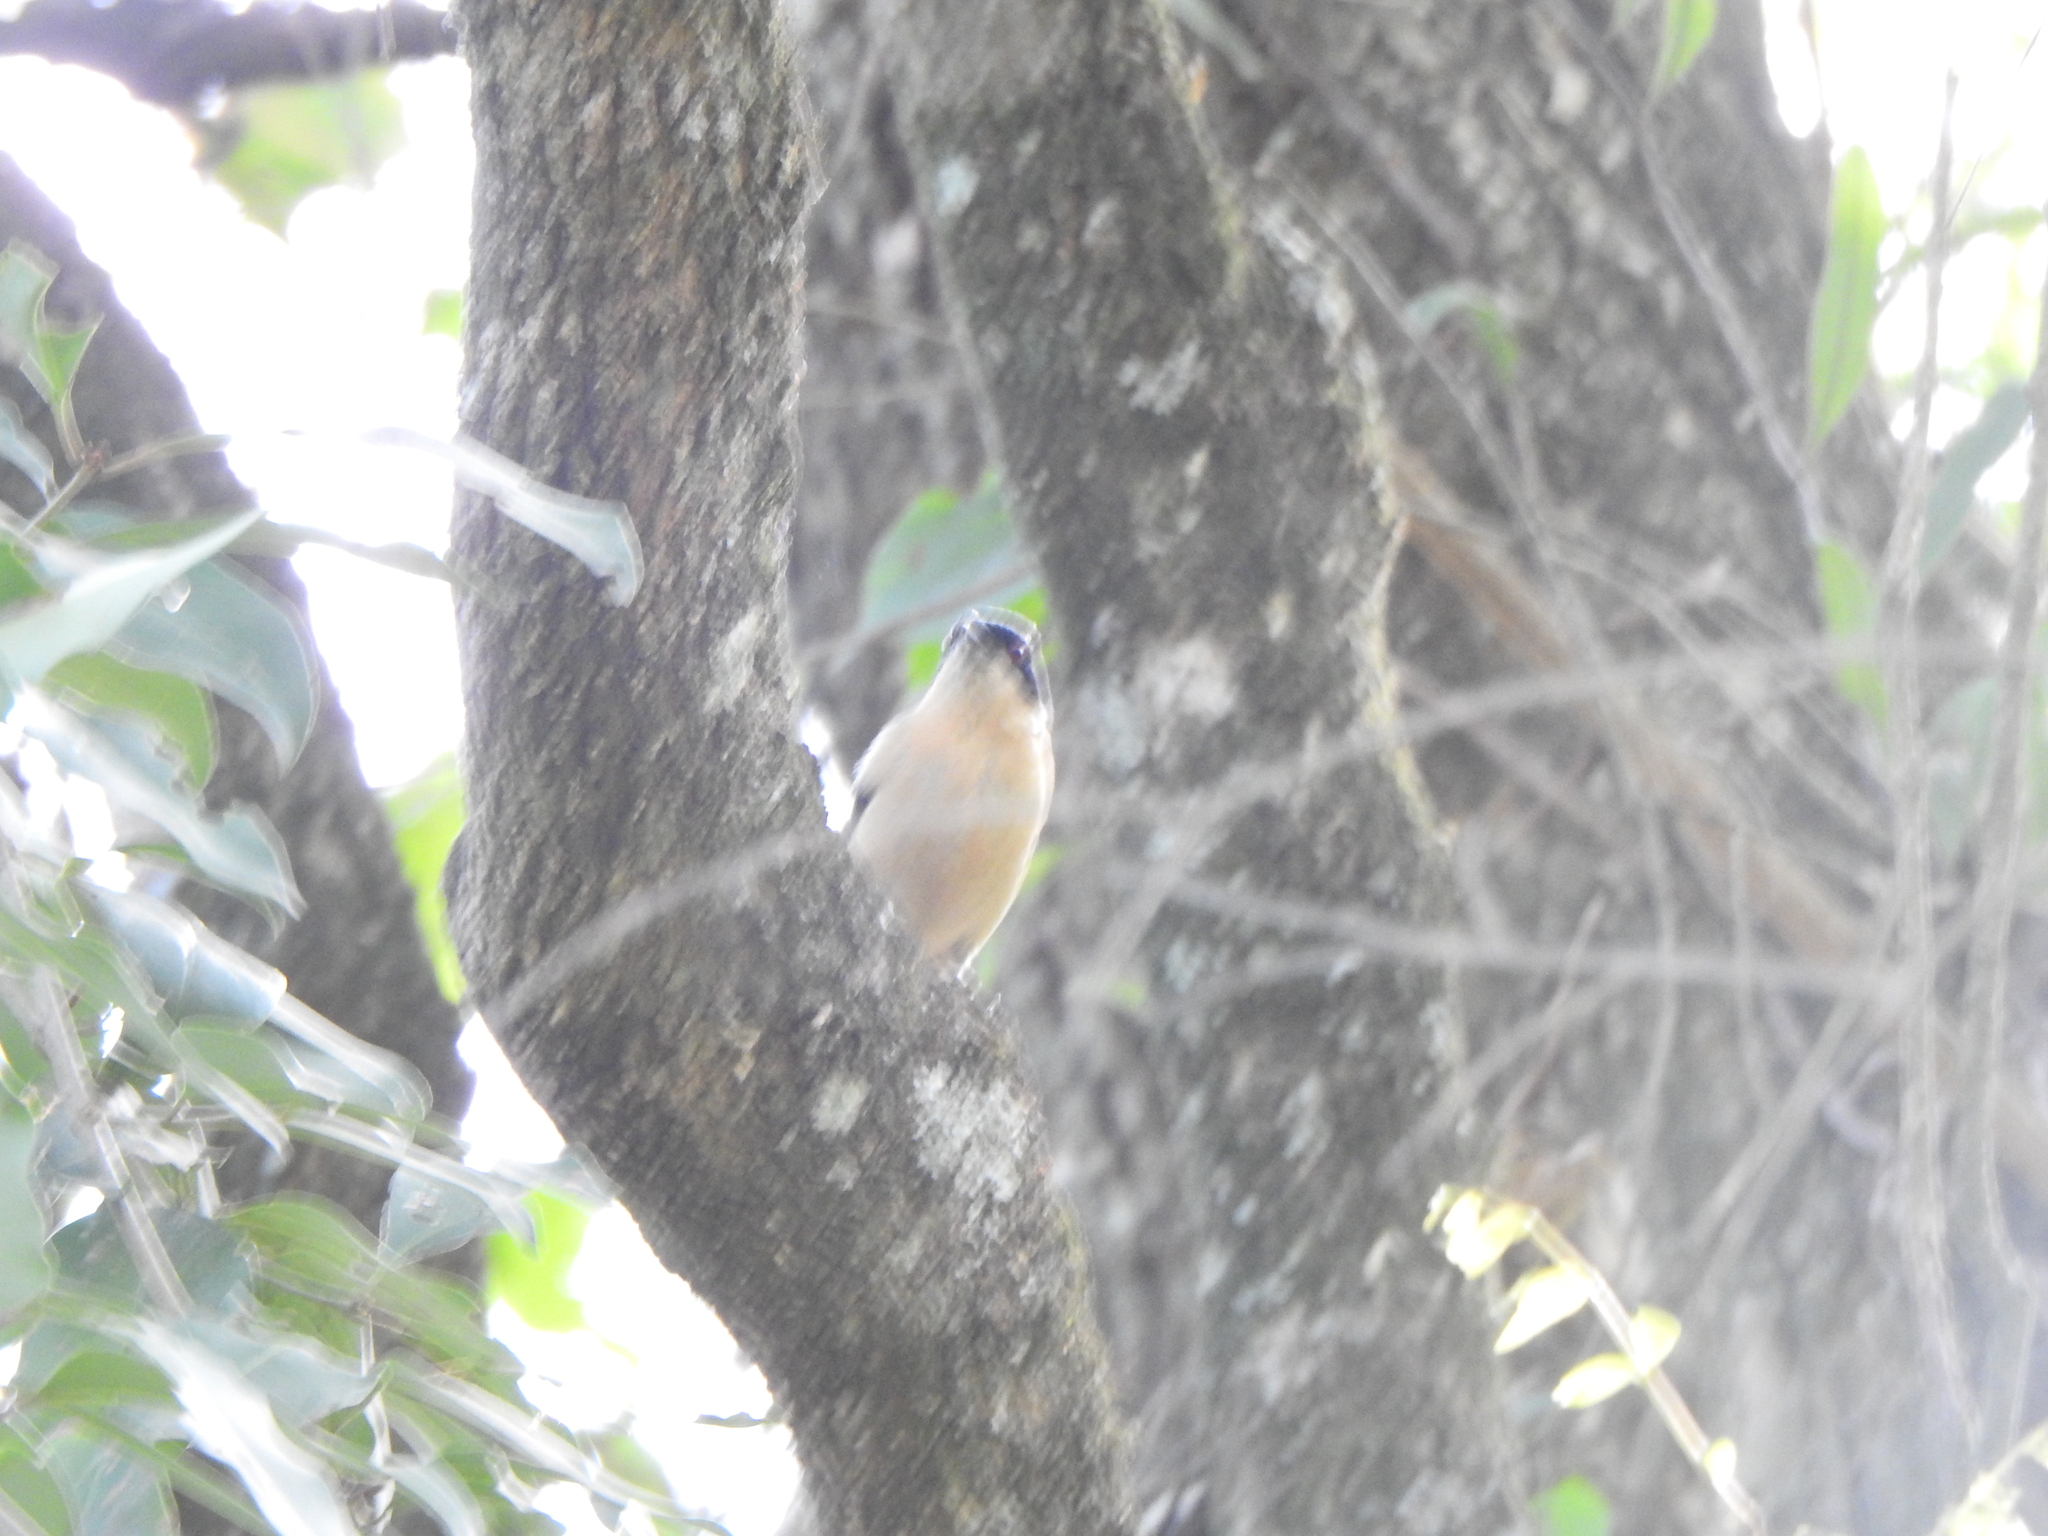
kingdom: Animalia
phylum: Chordata
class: Aves
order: Passeriformes
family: Thraupidae
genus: Pipraeidea
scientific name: Pipraeidea melanonota
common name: Fawn-breasted tanager
